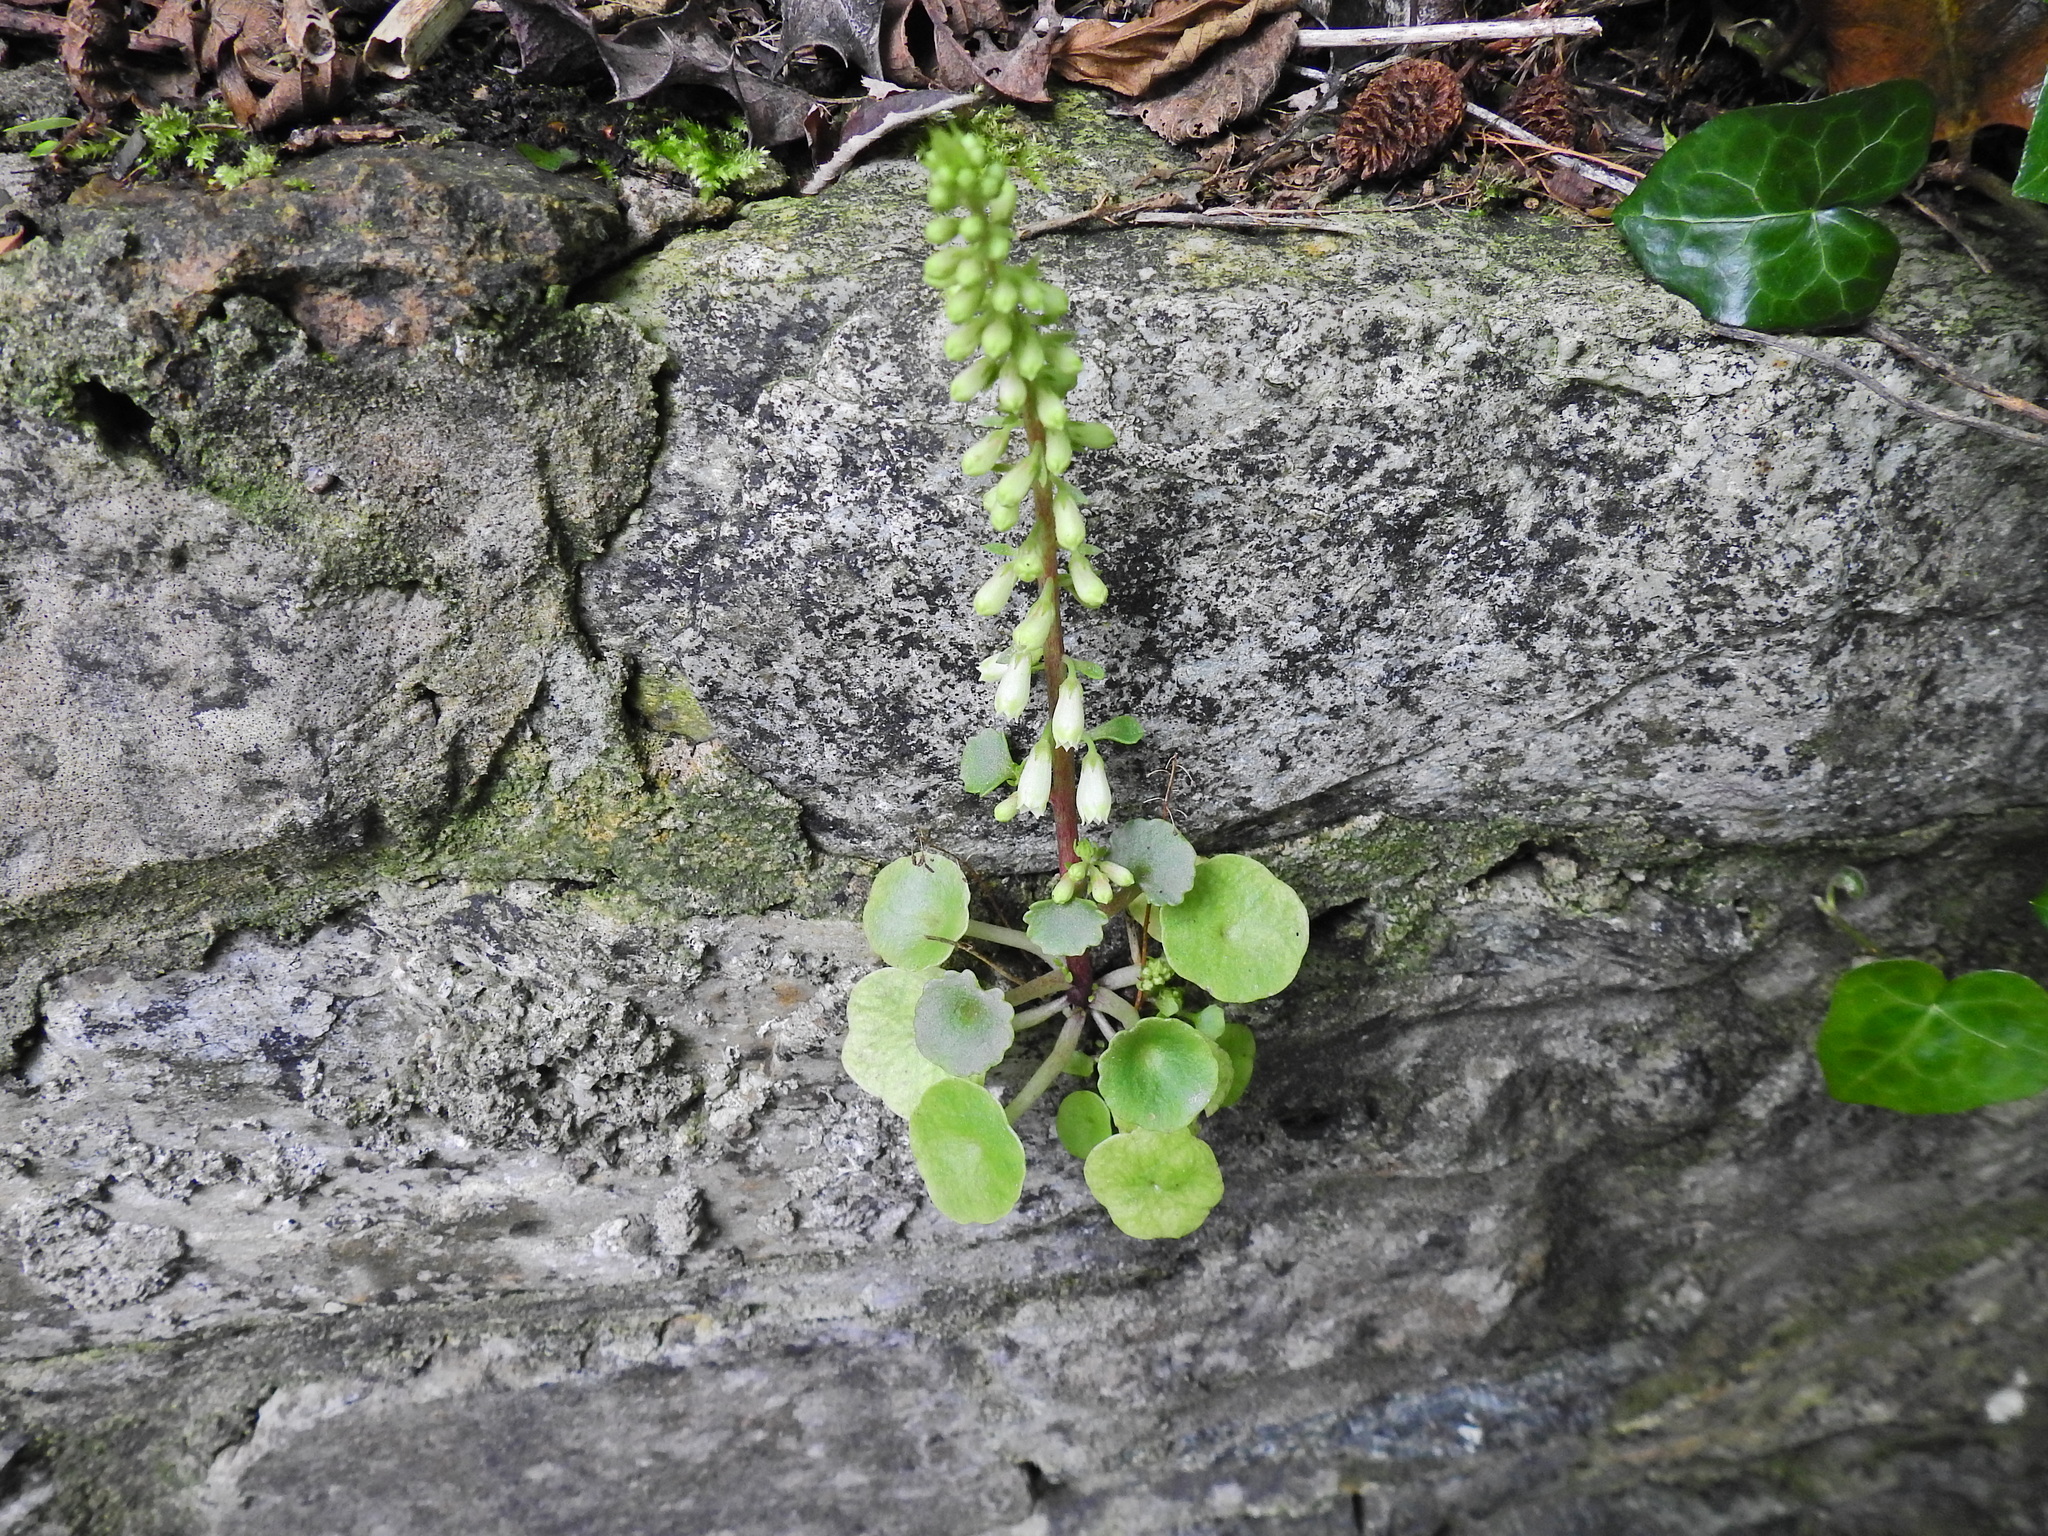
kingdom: Plantae
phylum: Tracheophyta
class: Magnoliopsida
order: Saxifragales
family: Crassulaceae
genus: Umbilicus
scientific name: Umbilicus rupestris
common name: Navelwort
